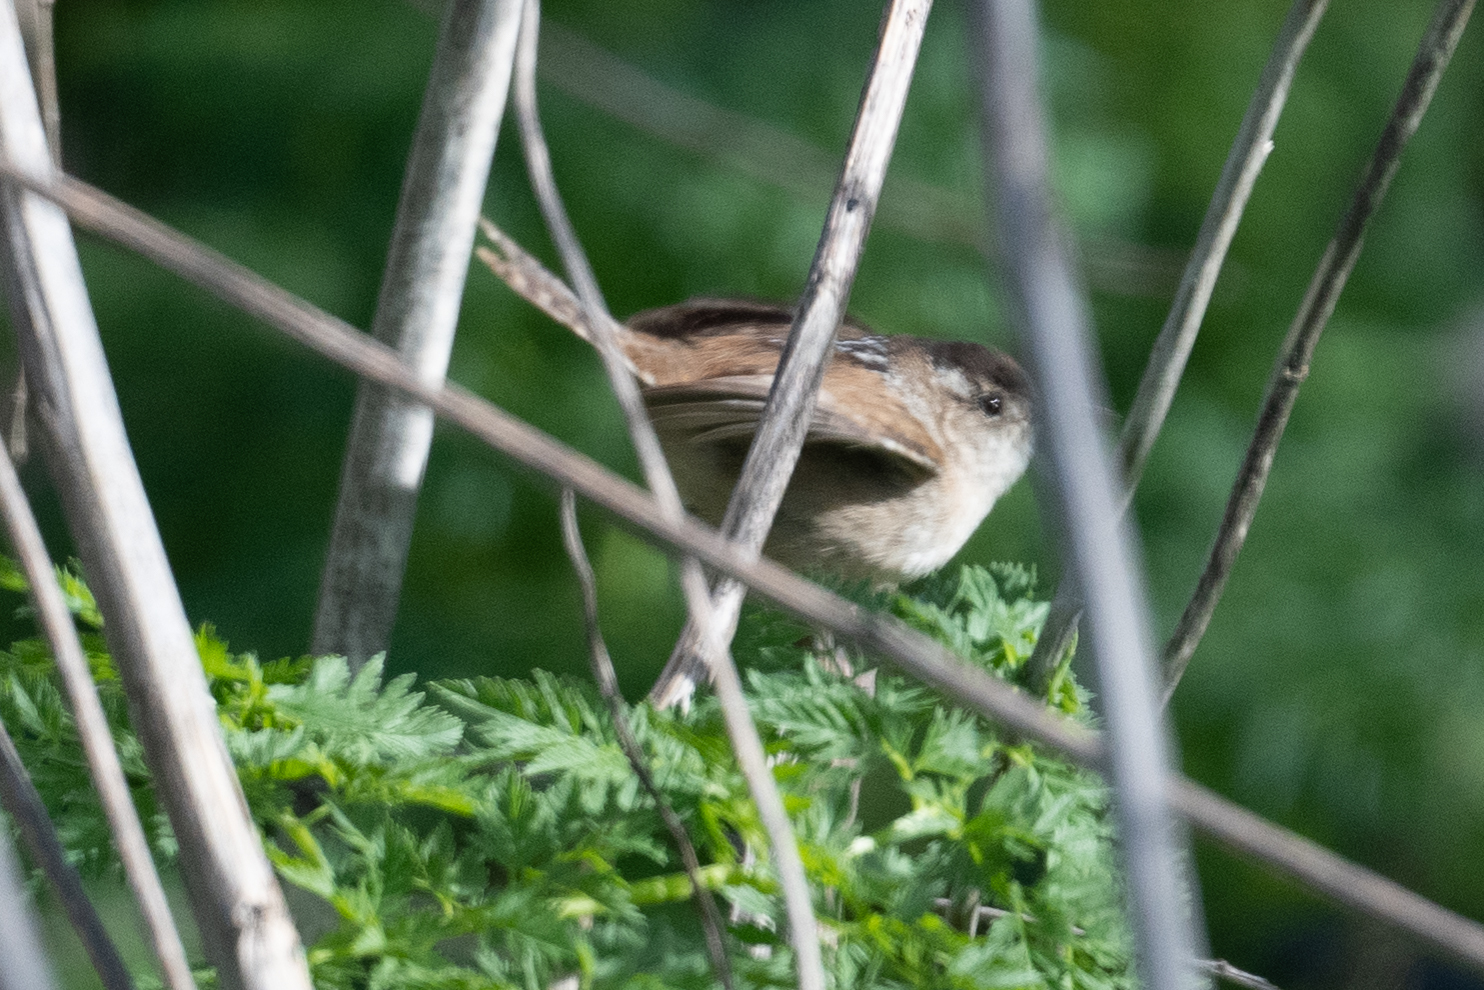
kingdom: Animalia
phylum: Chordata
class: Aves
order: Passeriformes
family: Troglodytidae
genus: Cistothorus
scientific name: Cistothorus palustris
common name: Marsh wren
